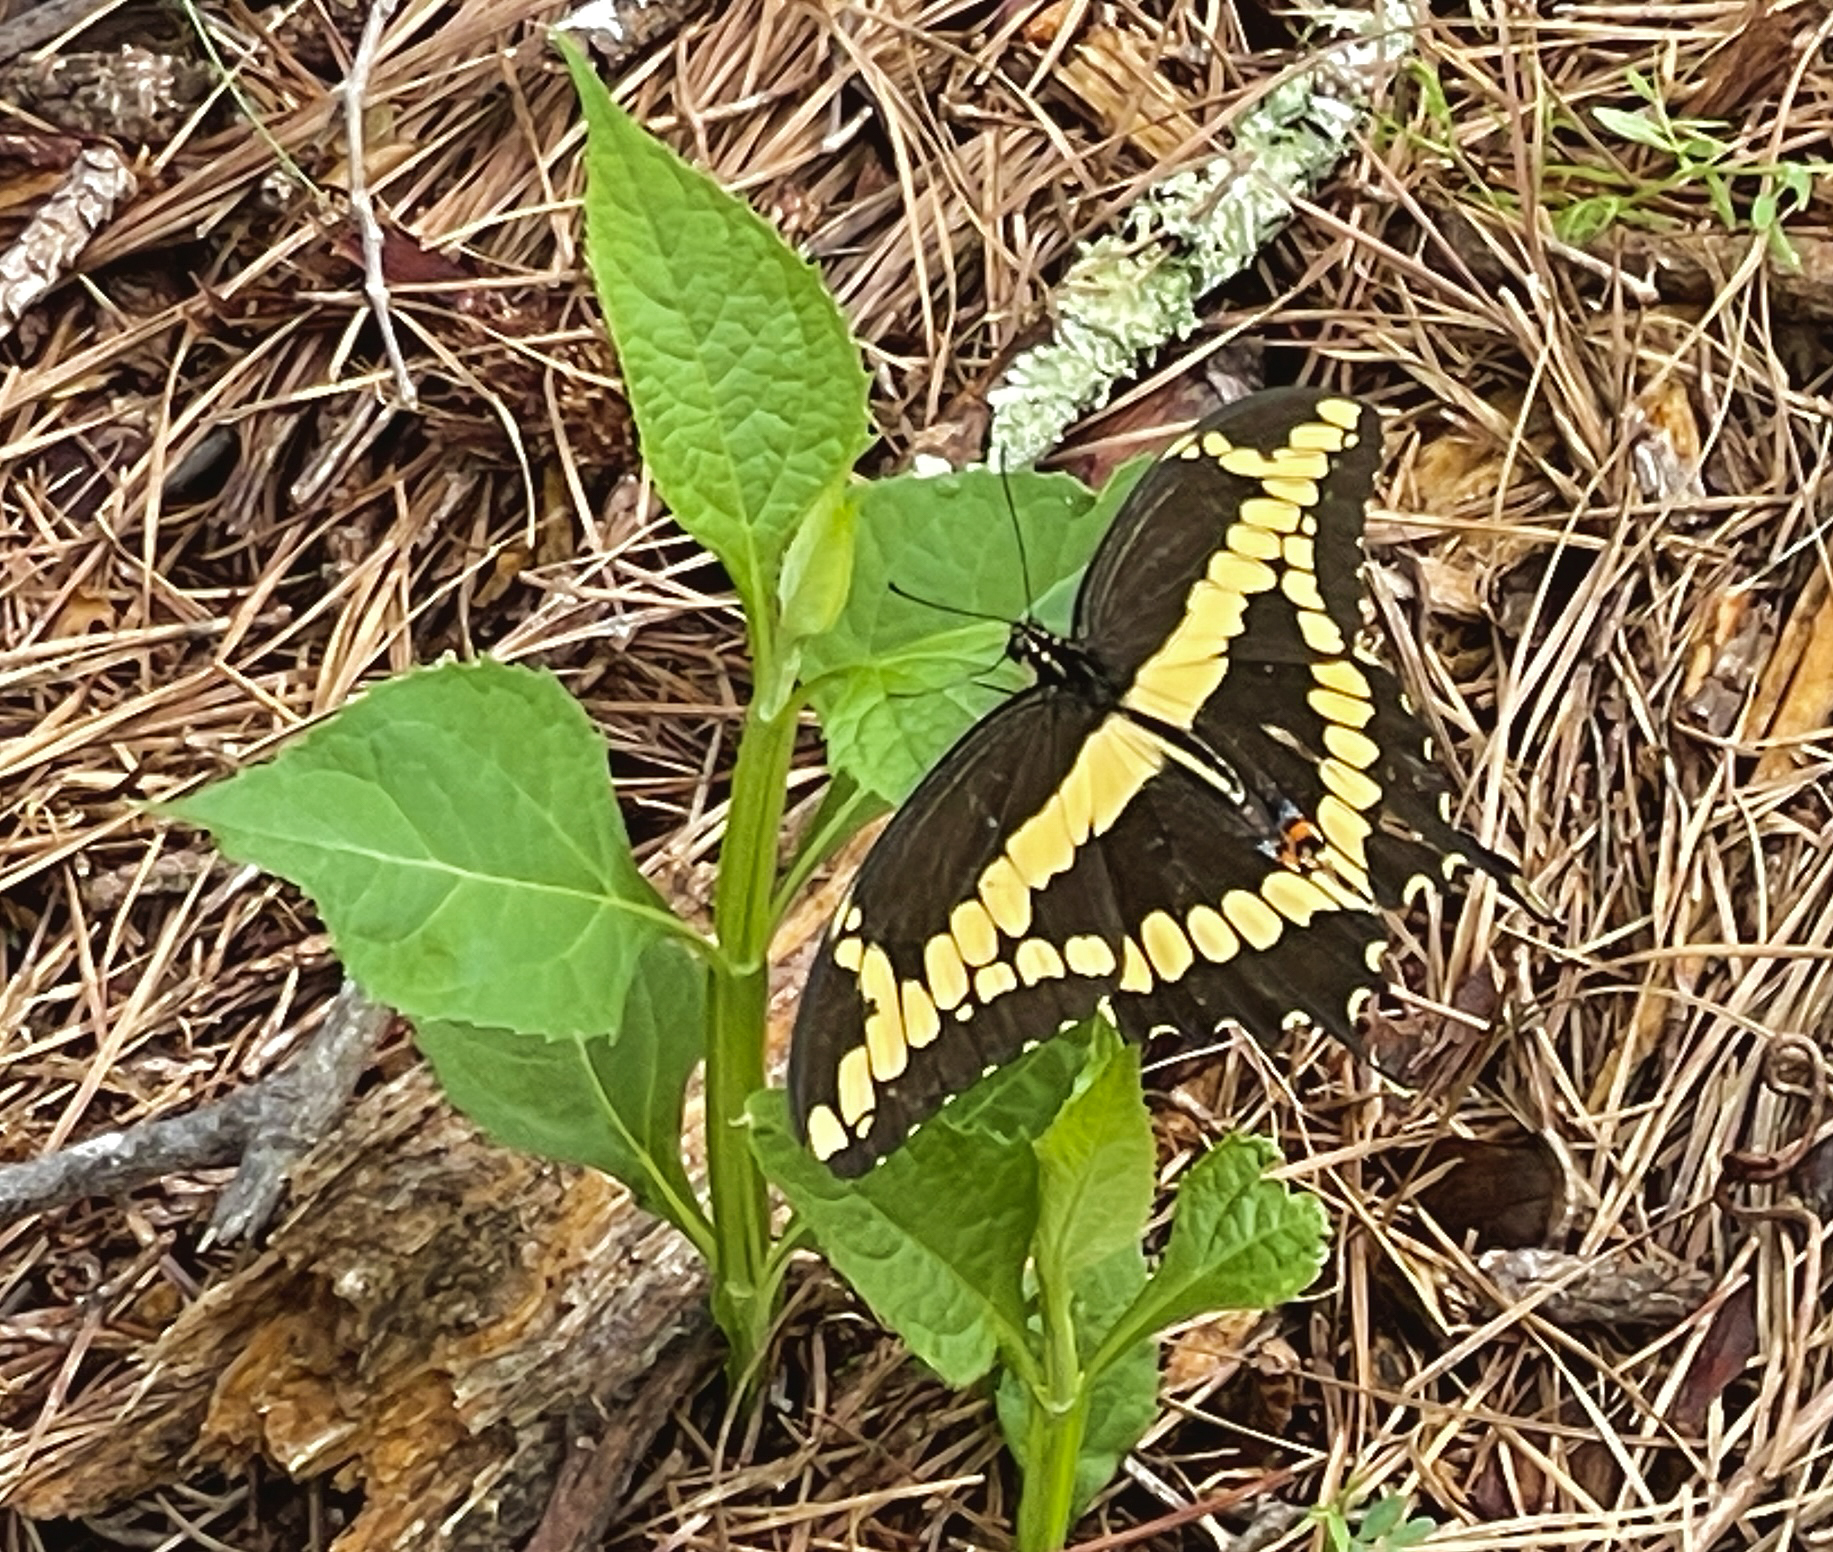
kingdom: Animalia
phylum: Arthropoda
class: Insecta
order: Lepidoptera
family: Papilionidae
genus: Papilio
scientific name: Papilio cresphontes
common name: Giant swallowtail
